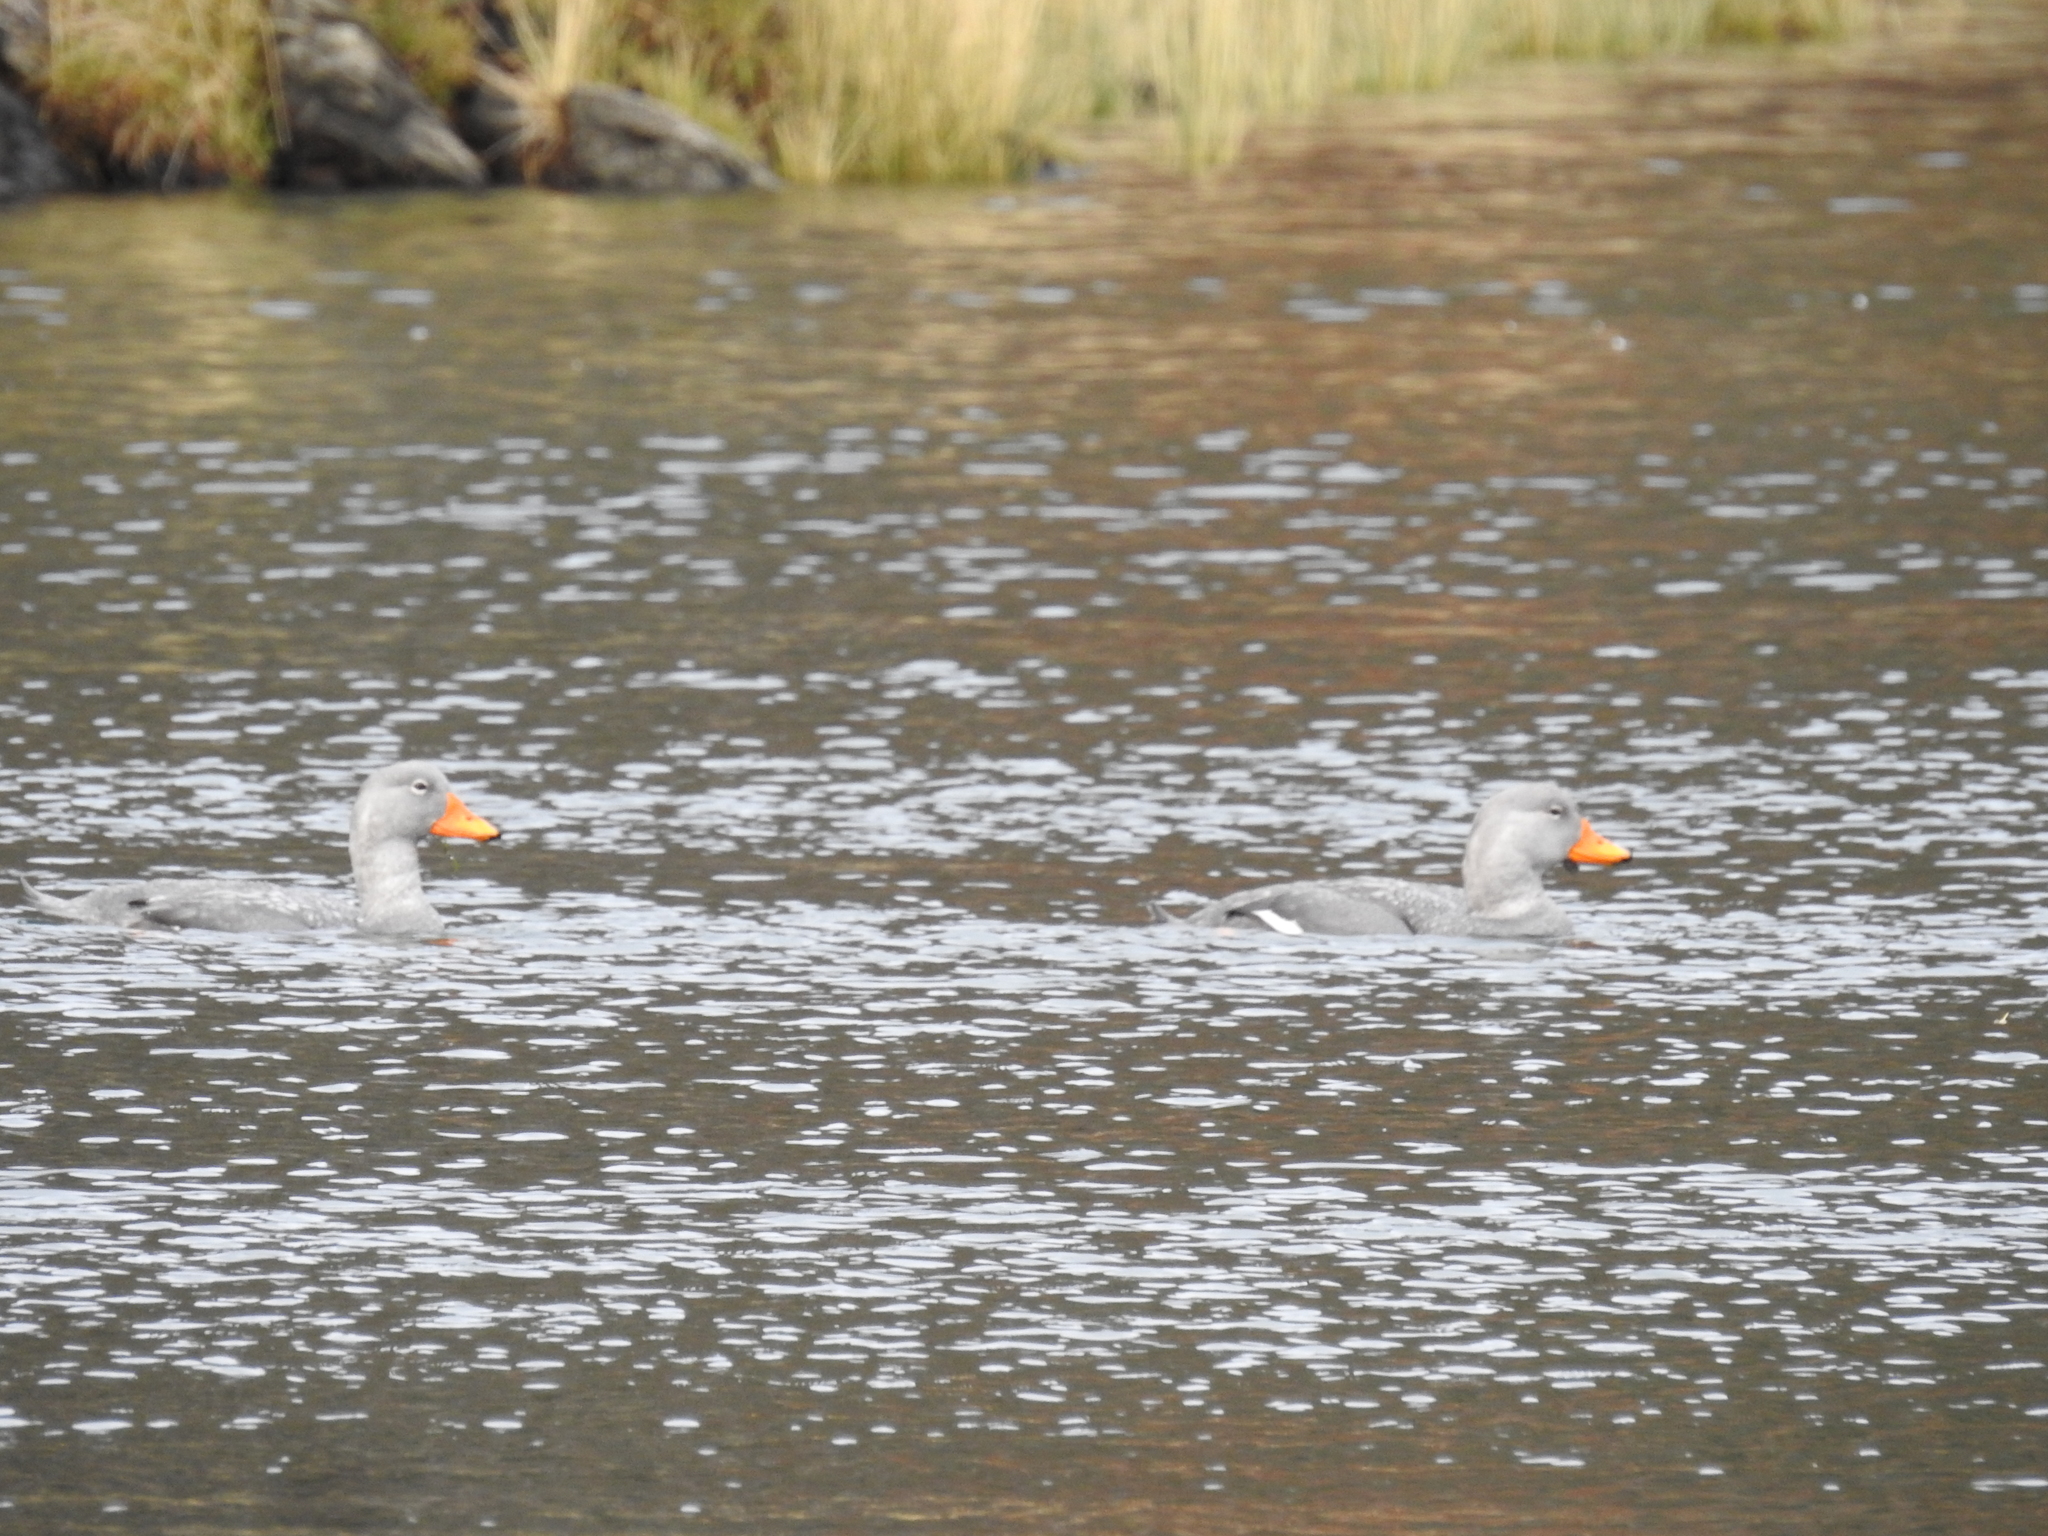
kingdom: Animalia
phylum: Chordata
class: Aves
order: Anseriformes
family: Anatidae
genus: Tachyeres
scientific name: Tachyeres pteneres
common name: Fuegian steamer duck
